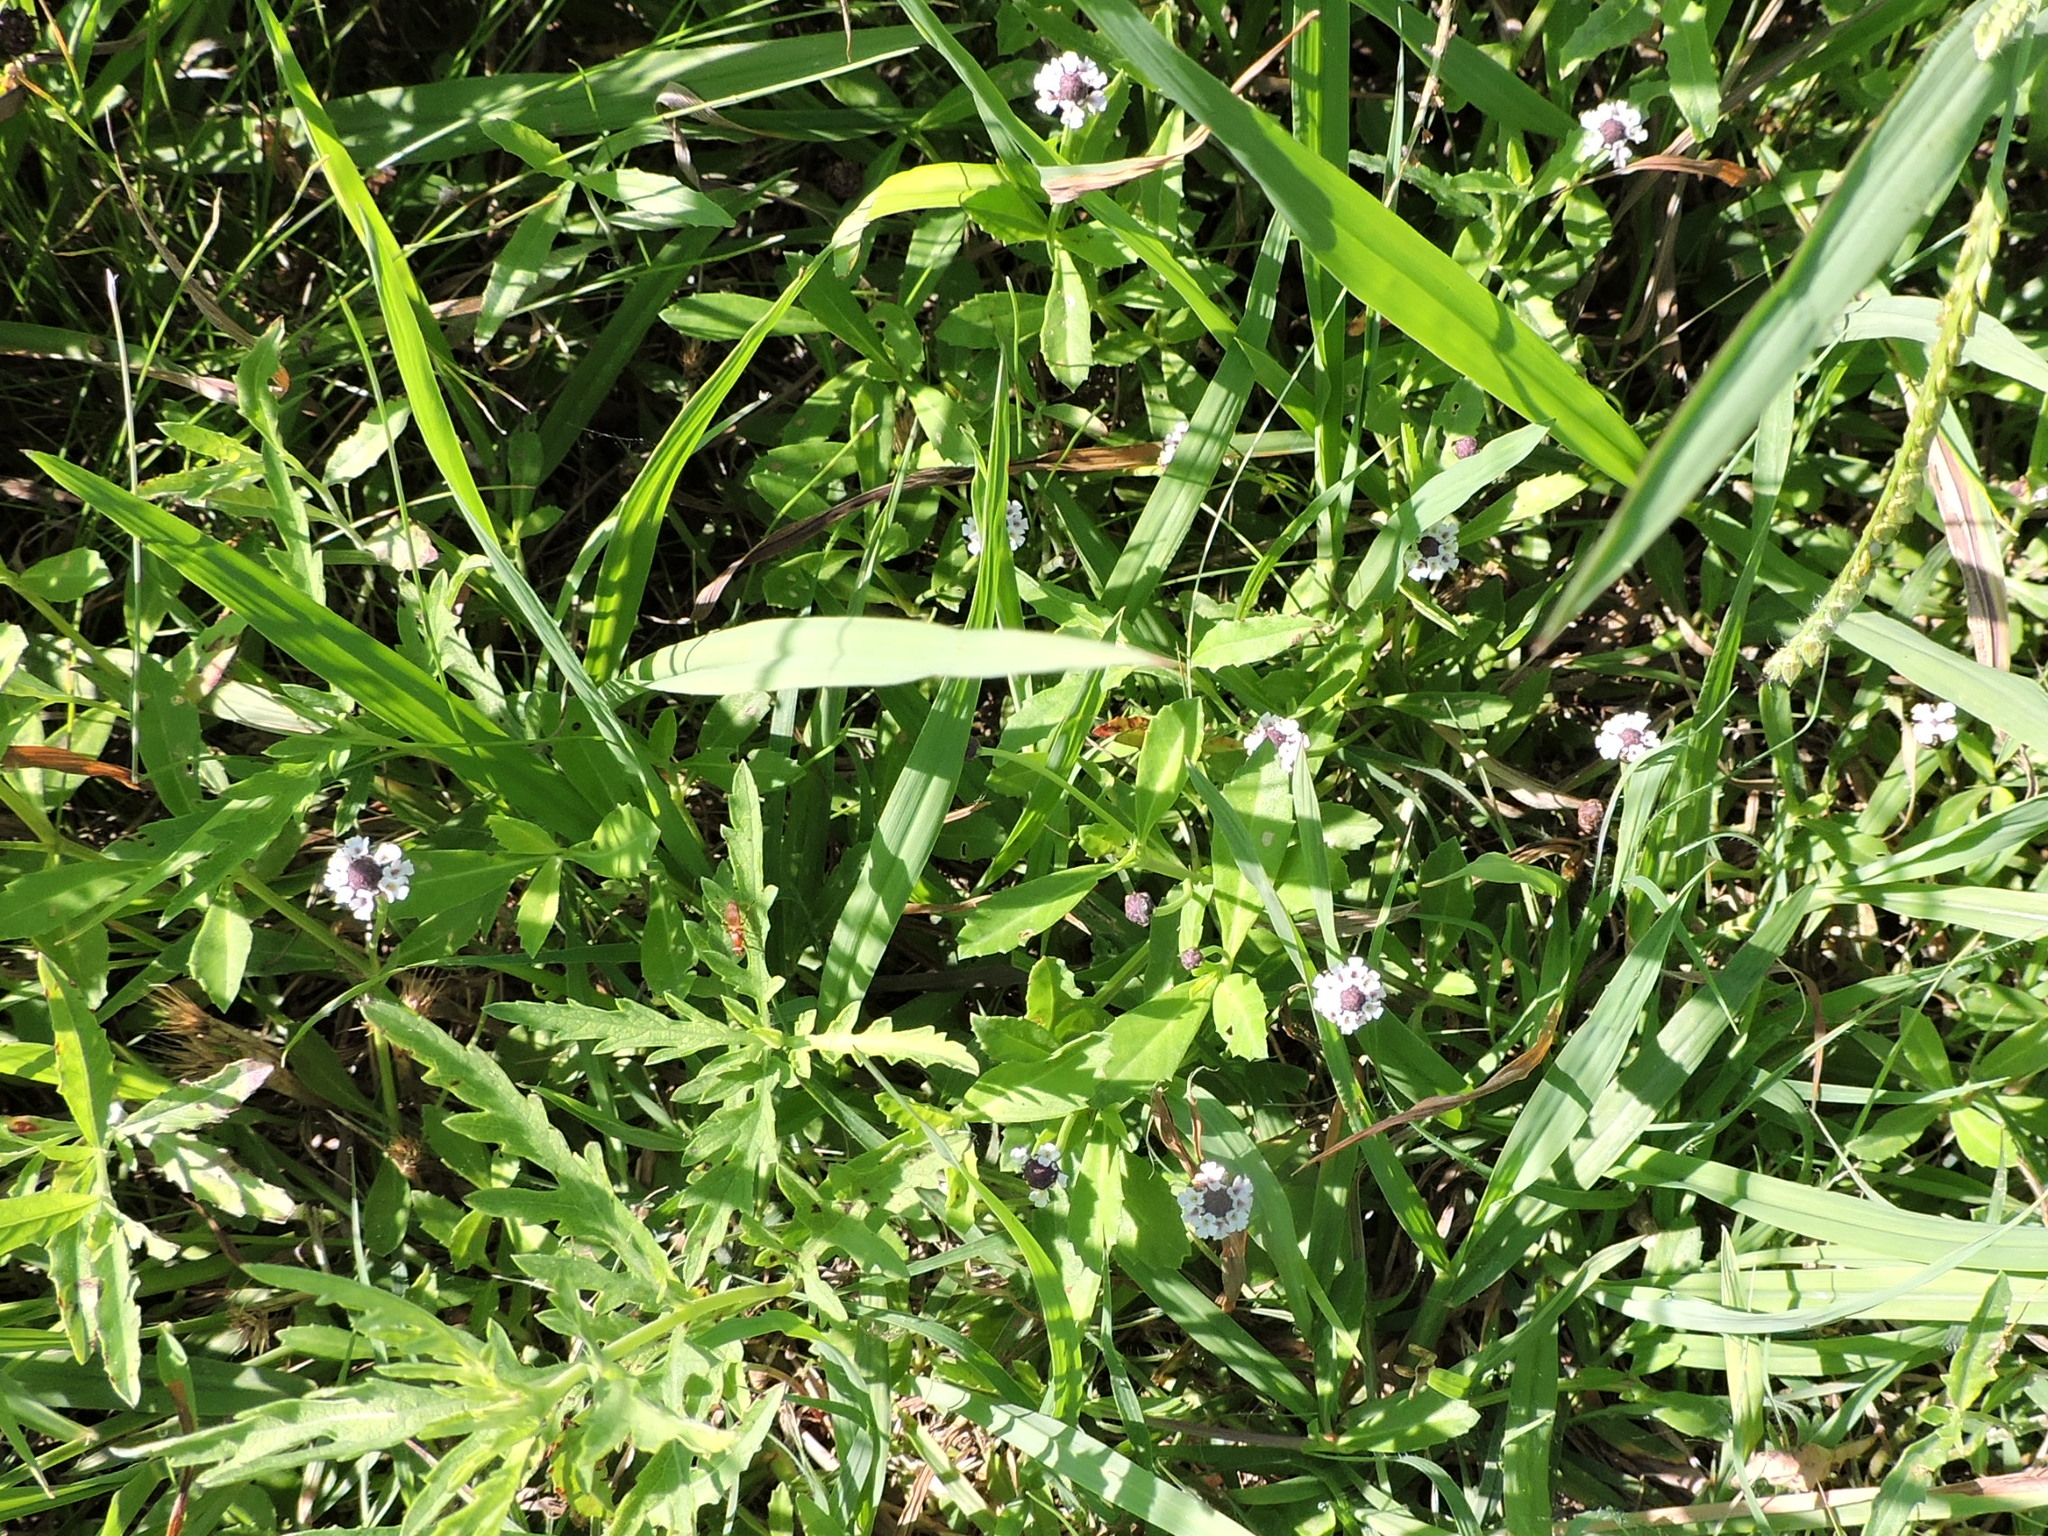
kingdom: Plantae
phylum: Tracheophyta
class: Magnoliopsida
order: Lamiales
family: Verbenaceae
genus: Phyla
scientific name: Phyla nodiflora
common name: Frogfruit
